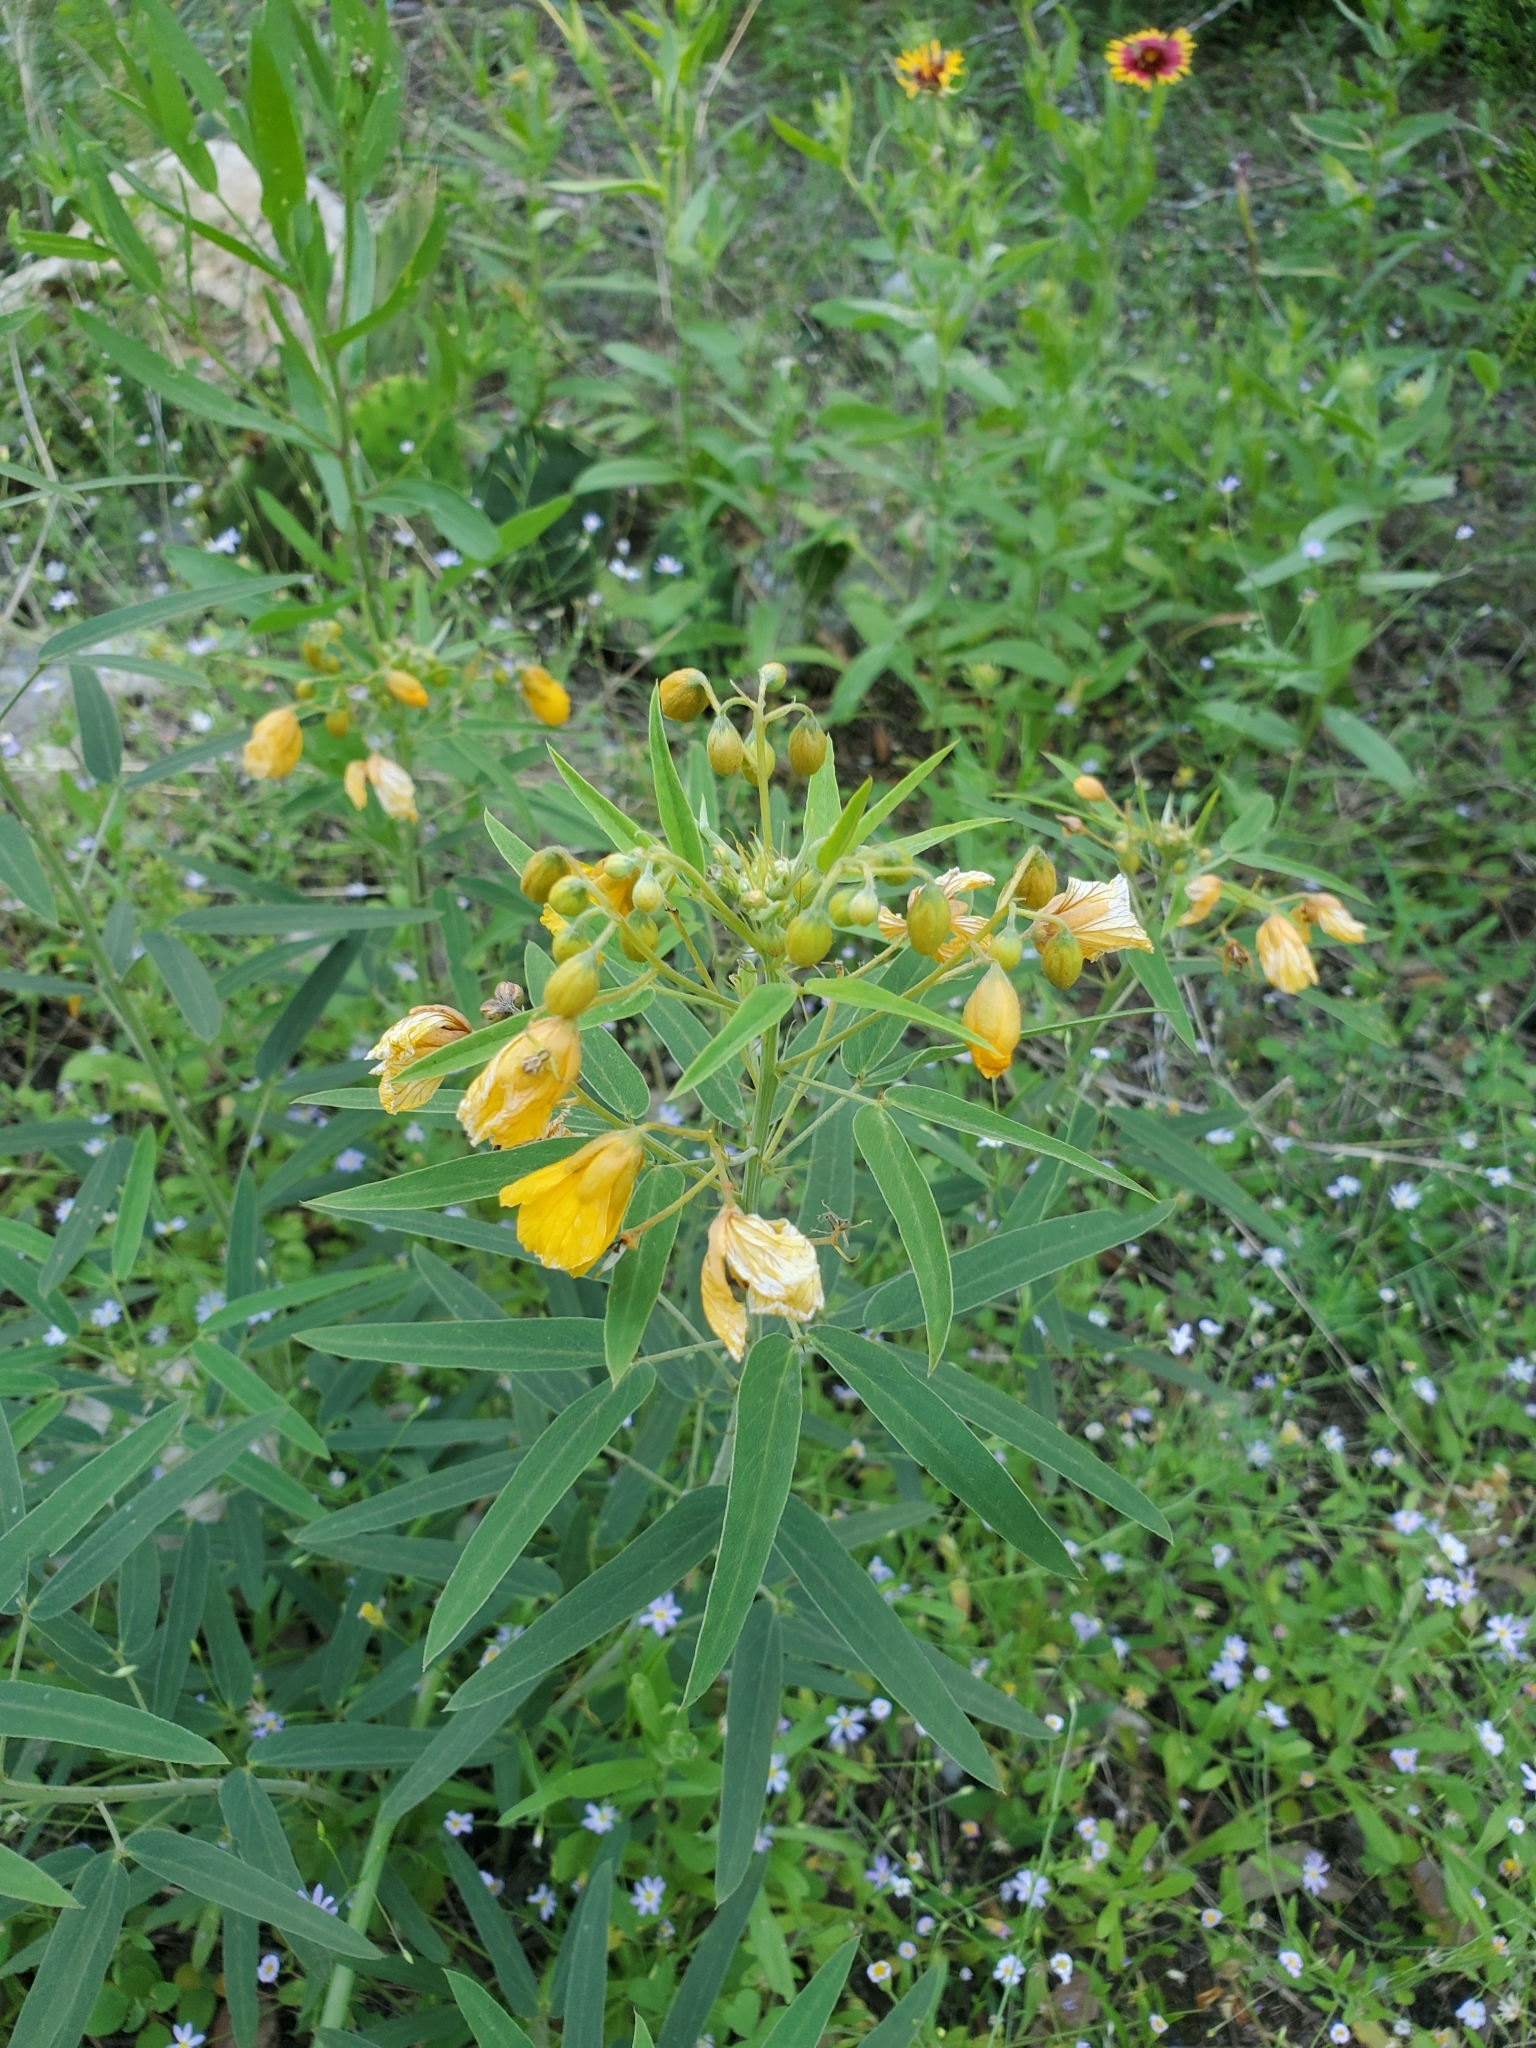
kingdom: Plantae
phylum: Tracheophyta
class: Magnoliopsida
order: Fabales
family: Fabaceae
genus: Senna
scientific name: Senna roemeriana
